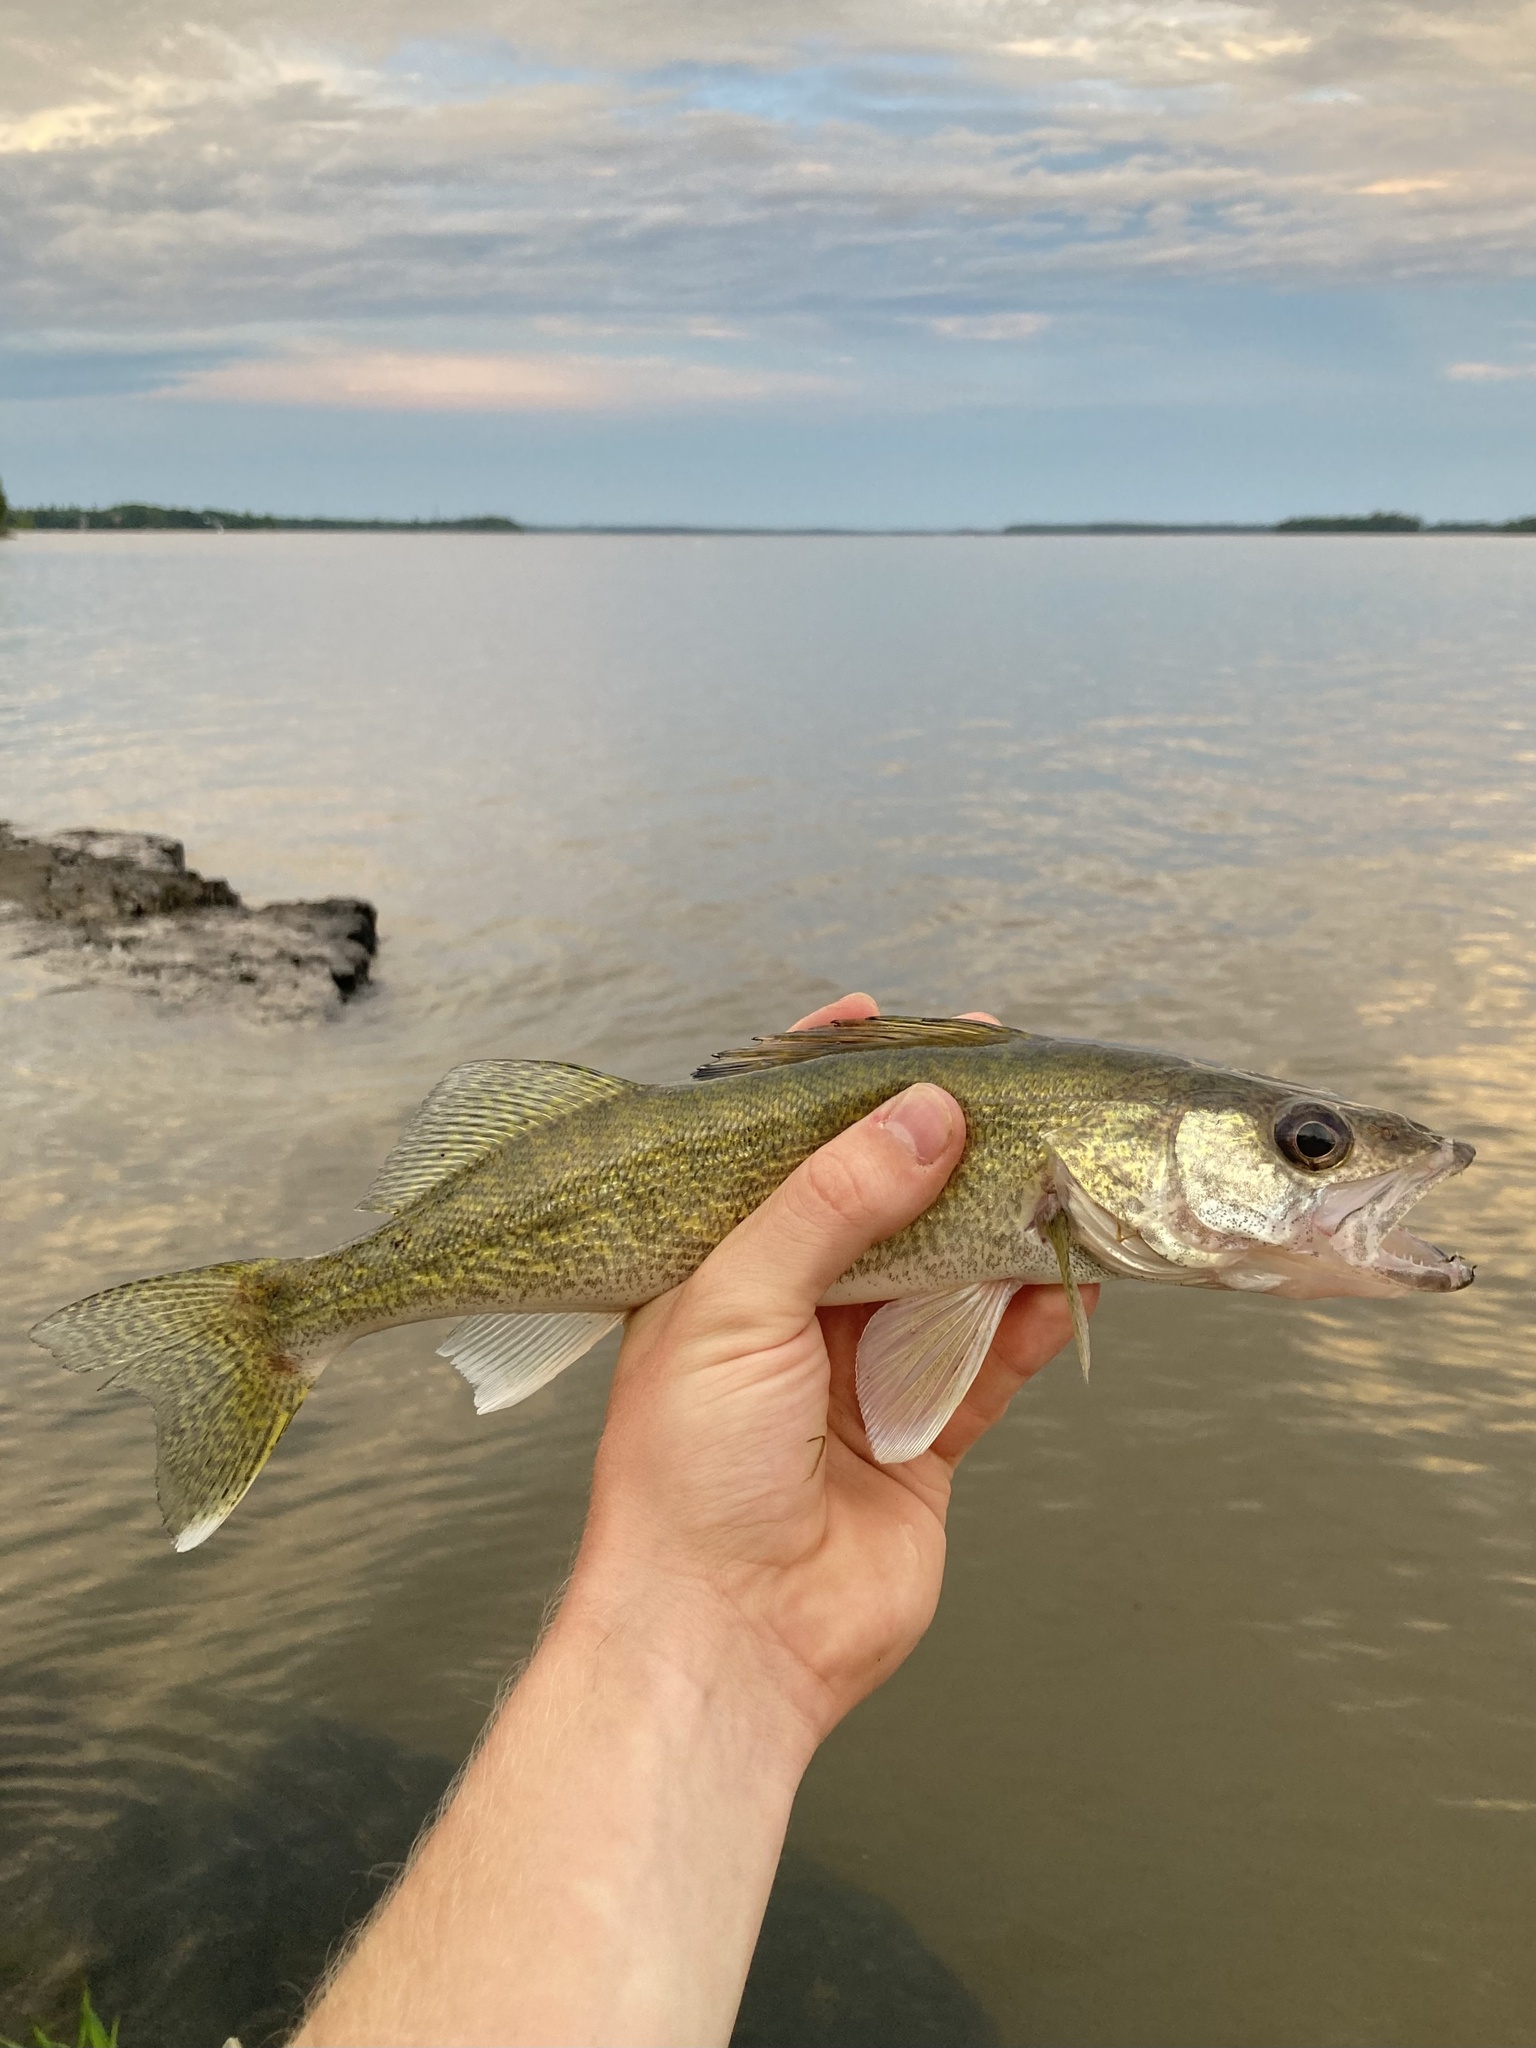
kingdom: Animalia
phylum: Chordata
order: Perciformes
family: Percidae
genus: Sander
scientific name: Sander vitreus
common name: Walleye
